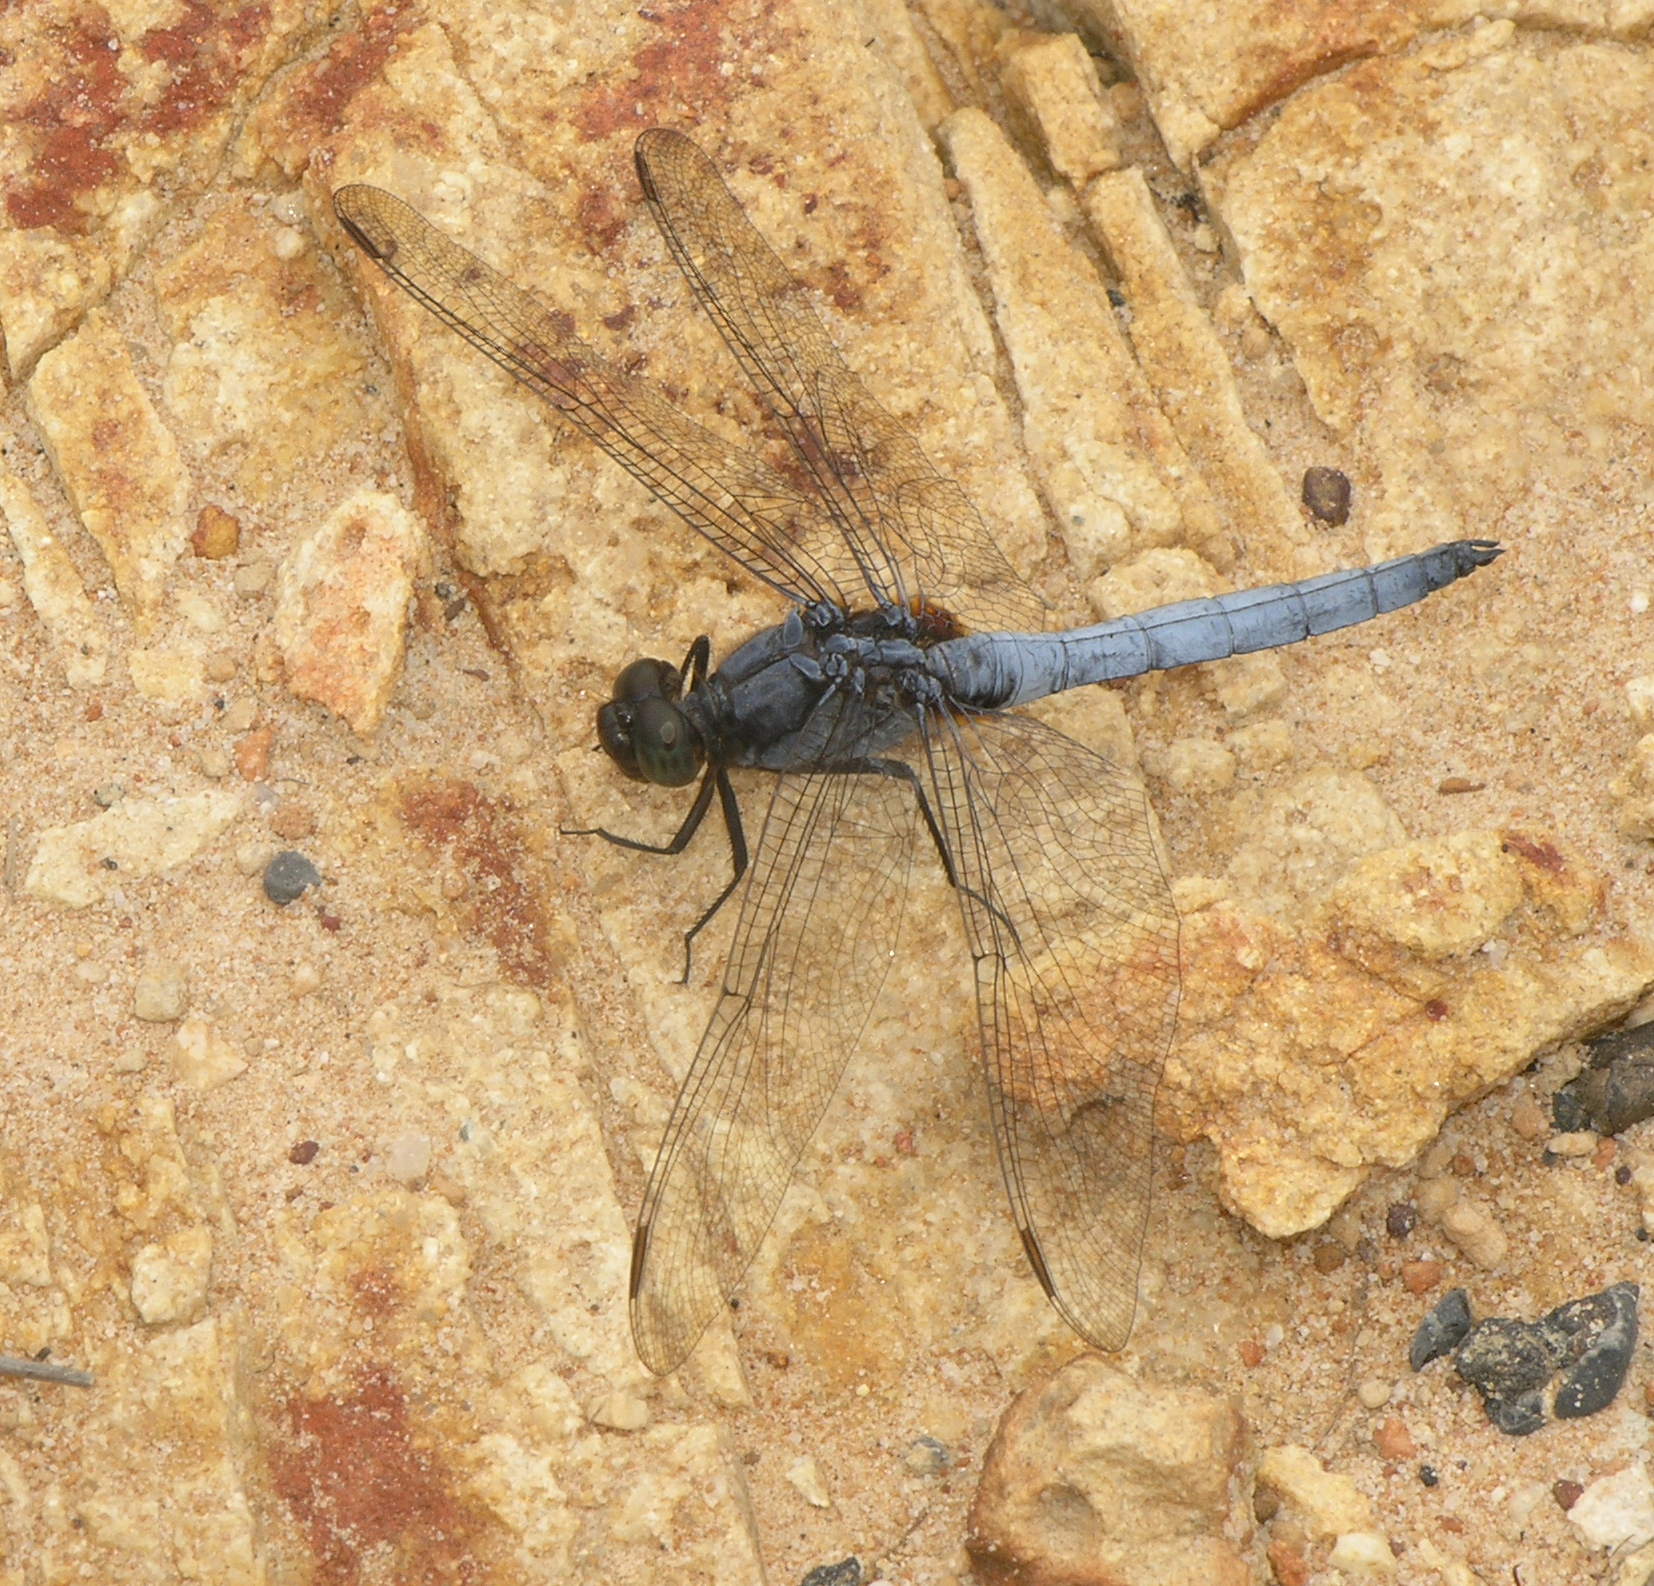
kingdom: Animalia
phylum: Arthropoda
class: Insecta
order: Odonata
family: Libellulidae
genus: Orthetrum
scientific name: Orthetrum glaucum
